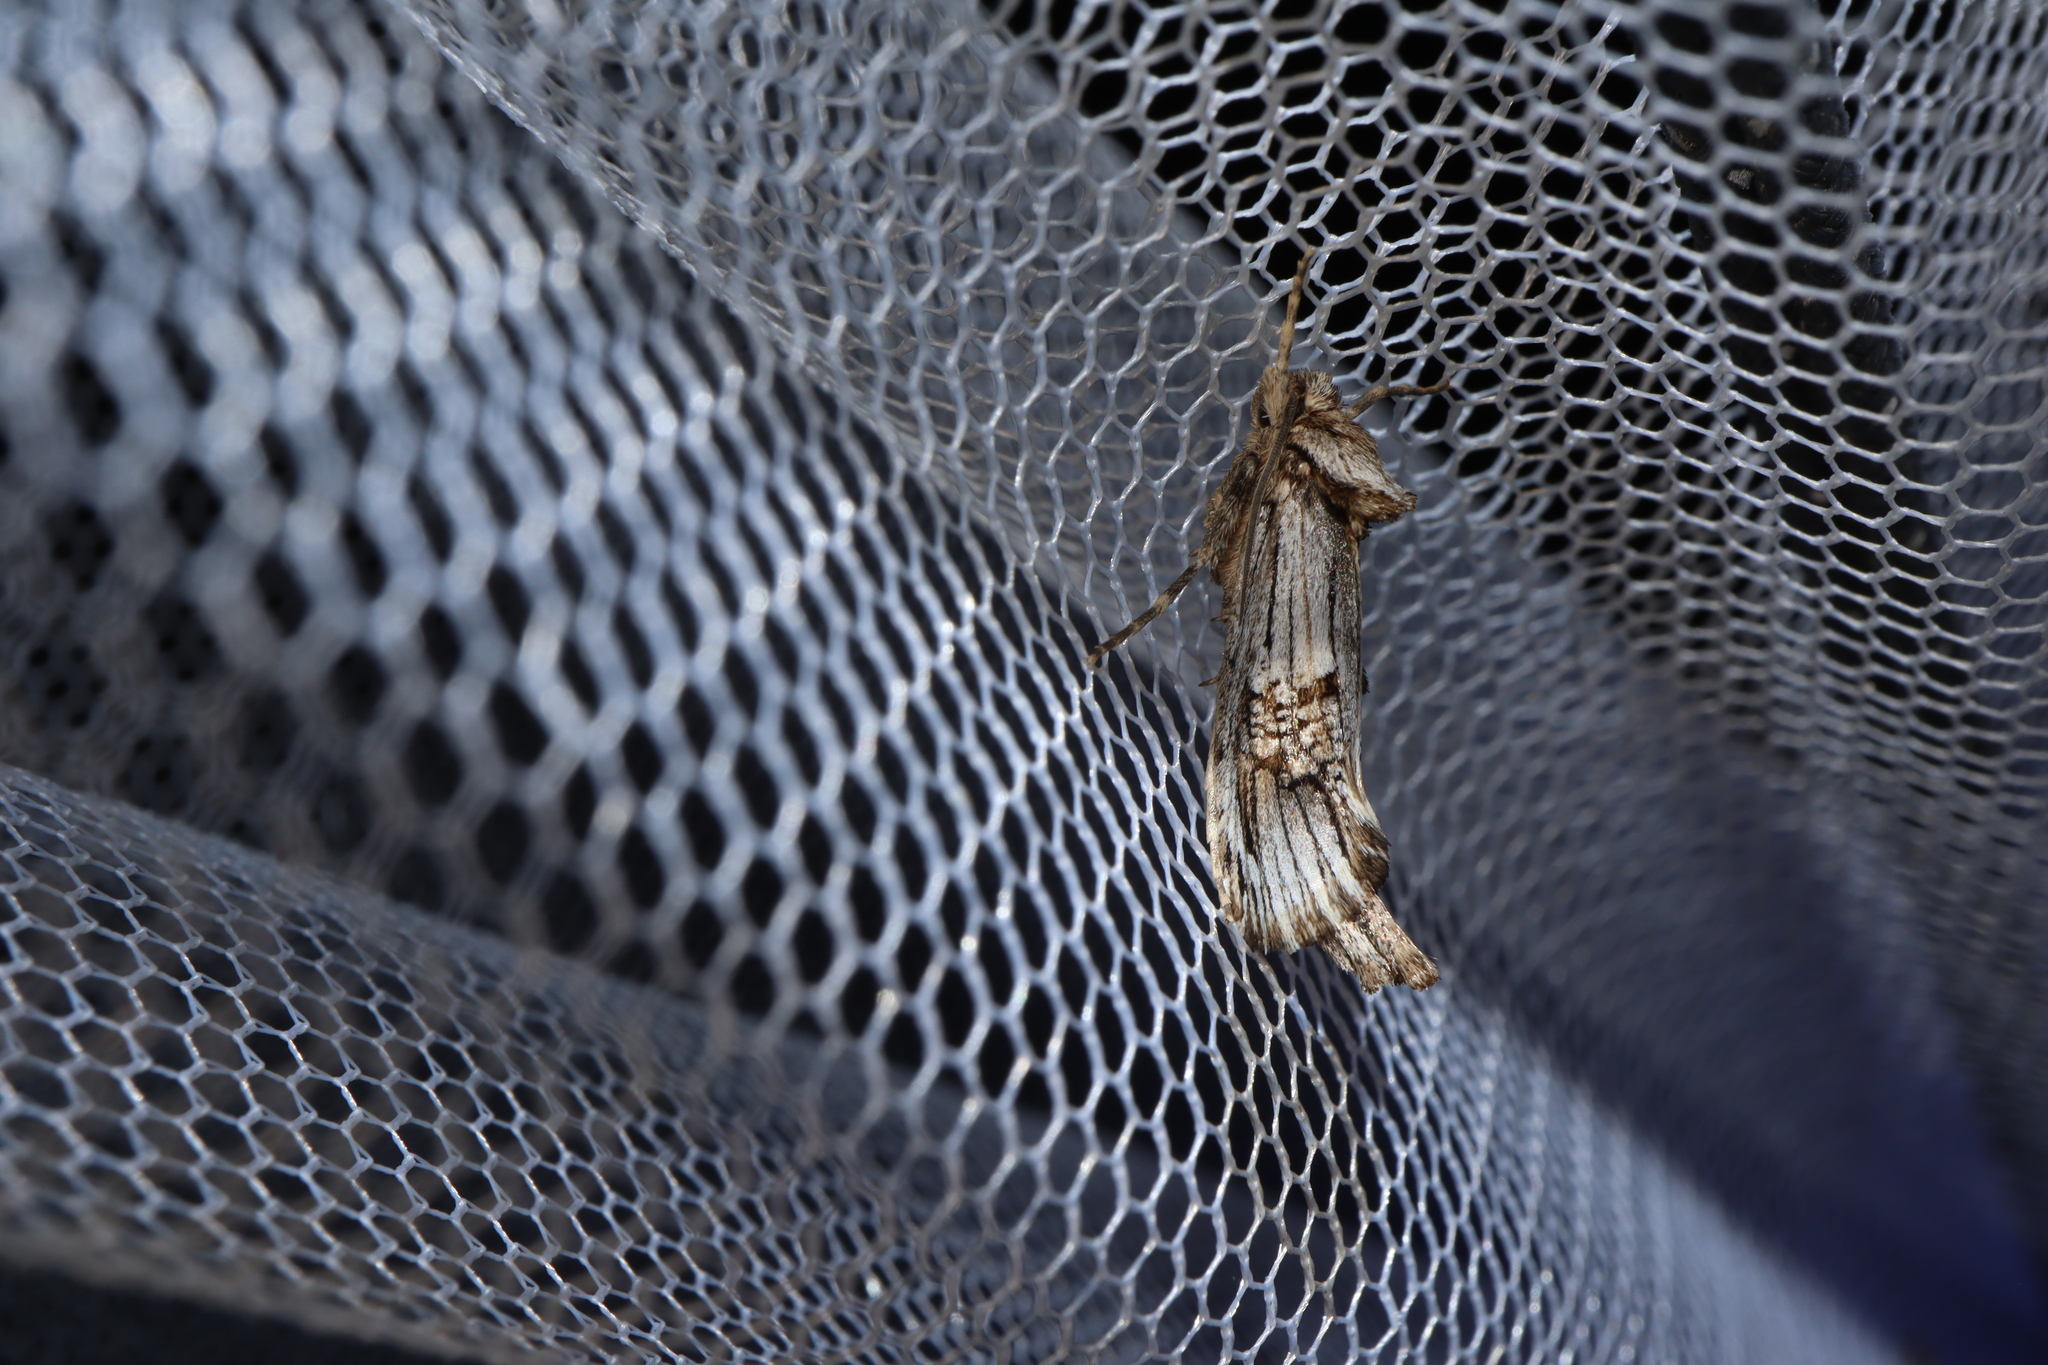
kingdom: Animalia
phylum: Arthropoda
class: Insecta
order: Lepidoptera
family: Cossidae
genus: Archaeoses
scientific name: Archaeoses pentasema
